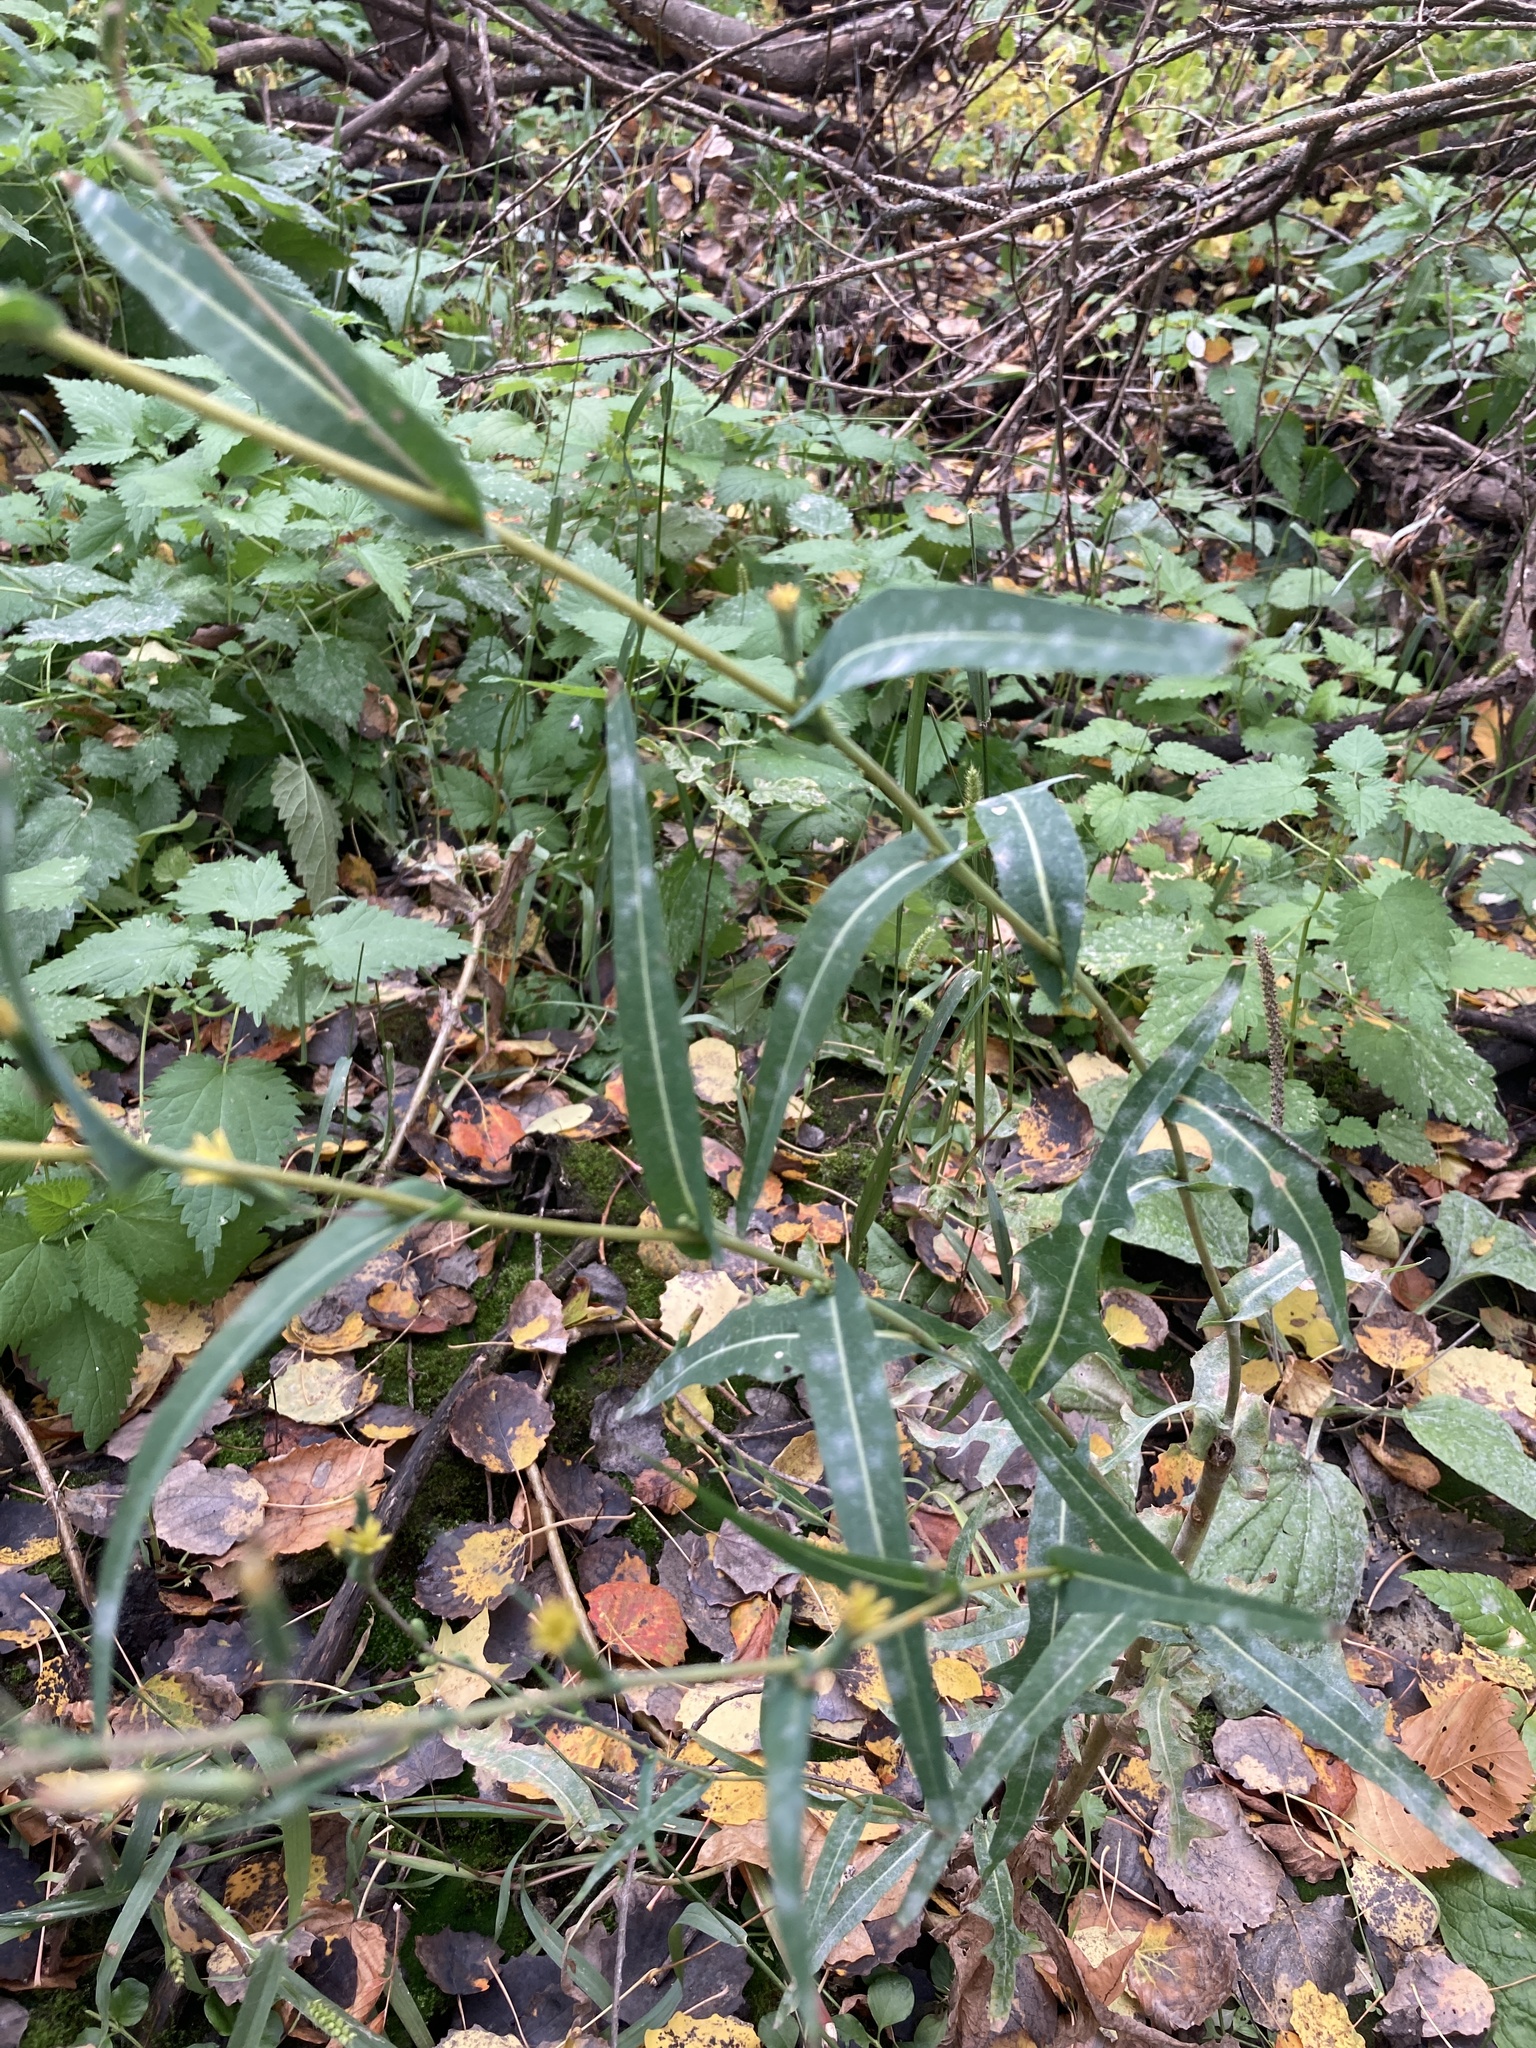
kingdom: Plantae
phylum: Tracheophyta
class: Magnoliopsida
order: Asterales
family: Asteraceae
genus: Lactuca
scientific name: Lactuca serriola
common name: Prickly lettuce
